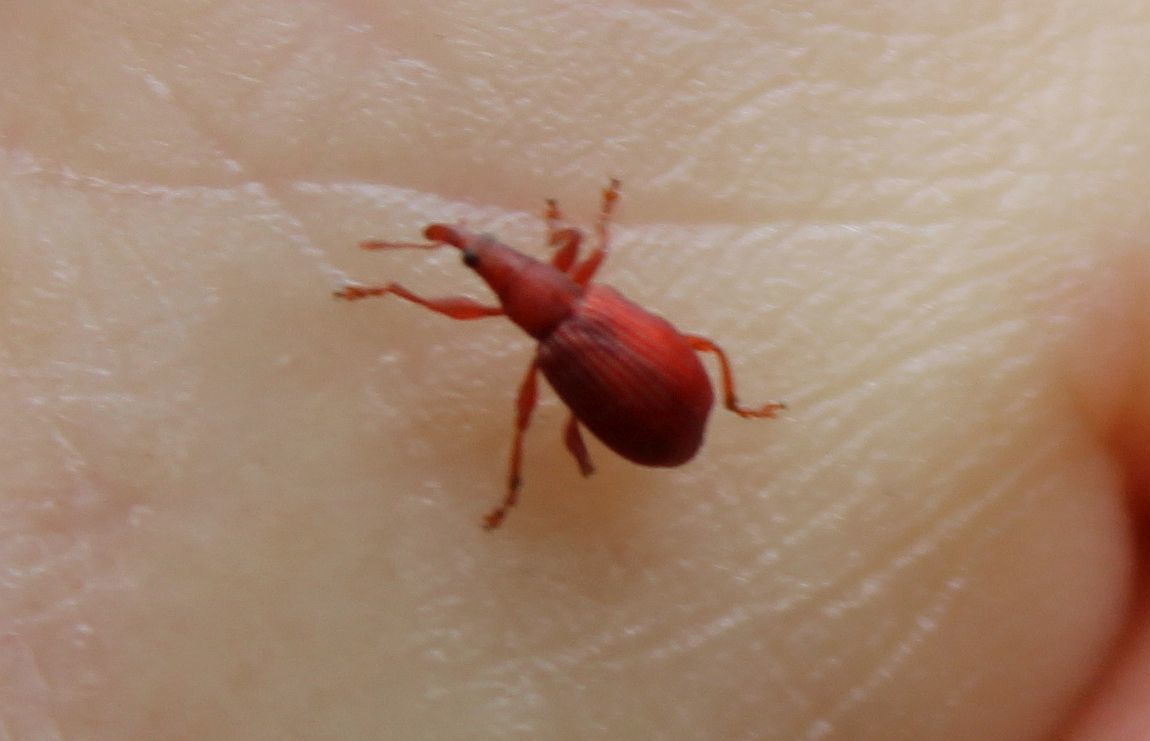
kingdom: Animalia
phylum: Arthropoda
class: Insecta
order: Coleoptera
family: Apionidae
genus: Apion
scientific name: Apion frumentarium
